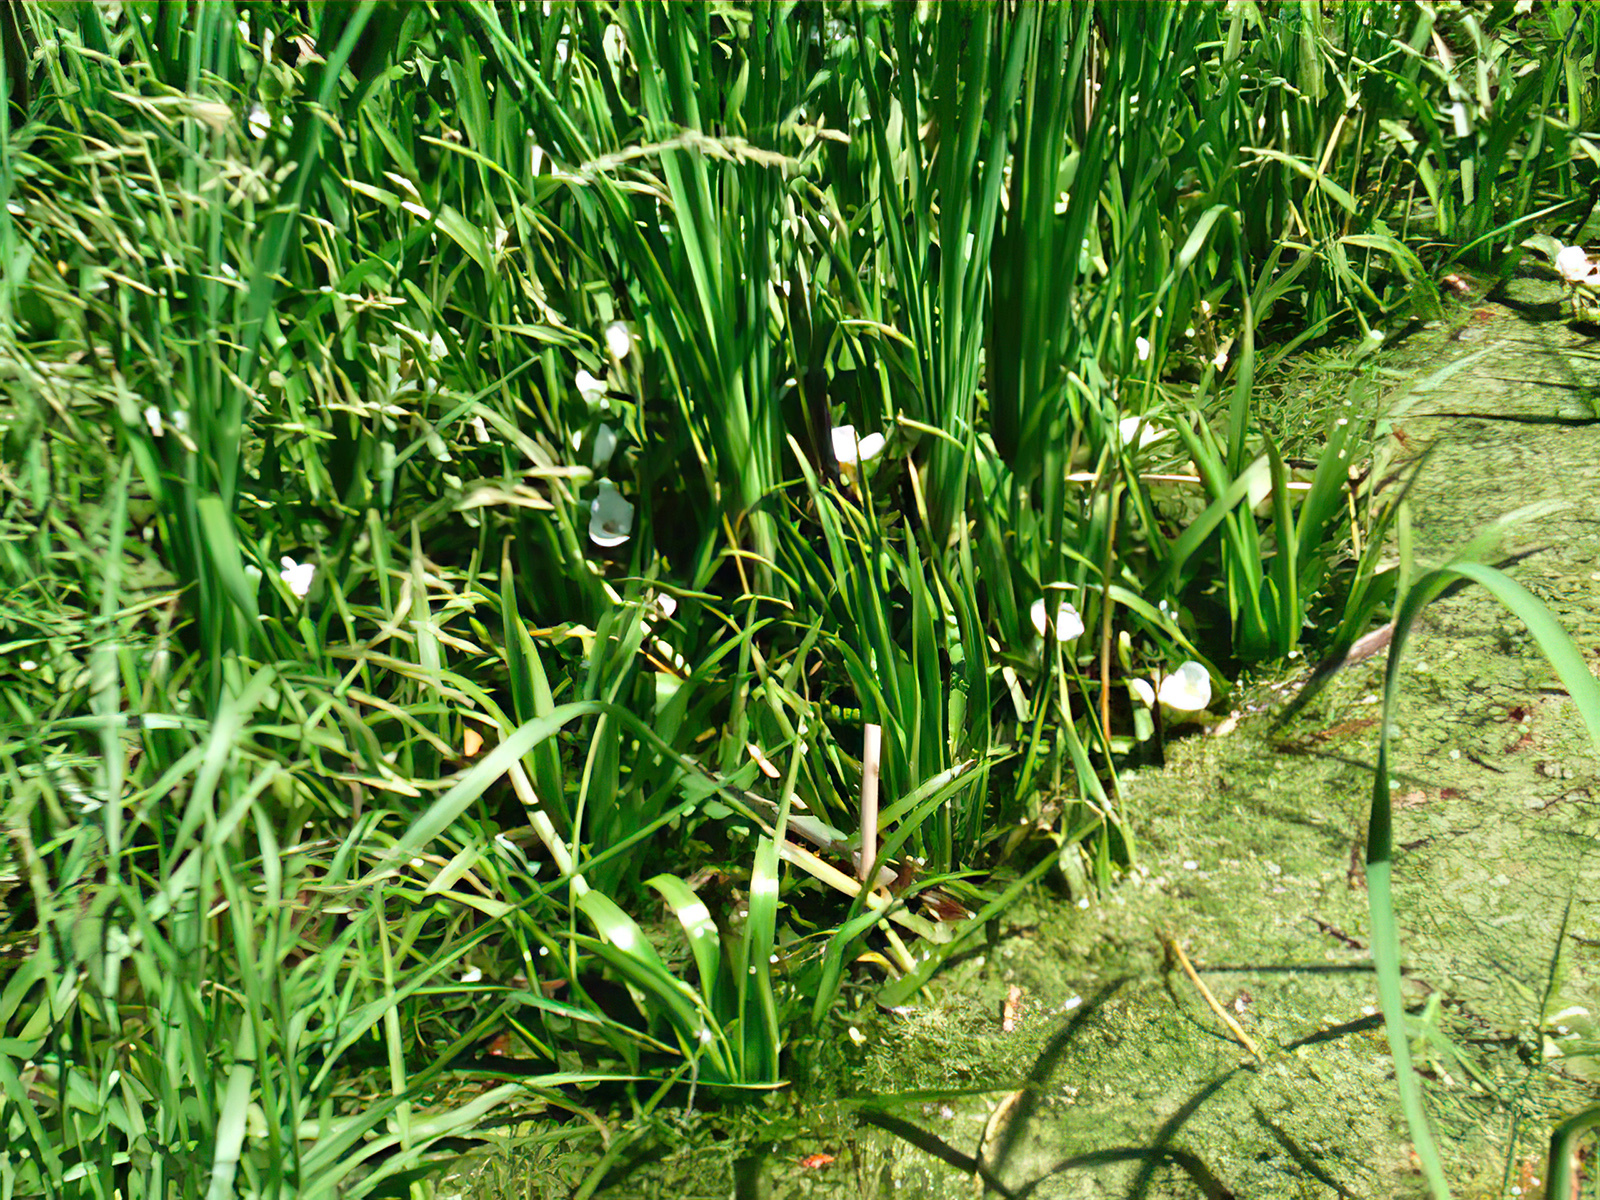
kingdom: Plantae
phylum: Tracheophyta
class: Liliopsida
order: Alismatales
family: Hydrocharitaceae
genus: Stratiotes
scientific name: Stratiotes aloides
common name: Water-soldier
